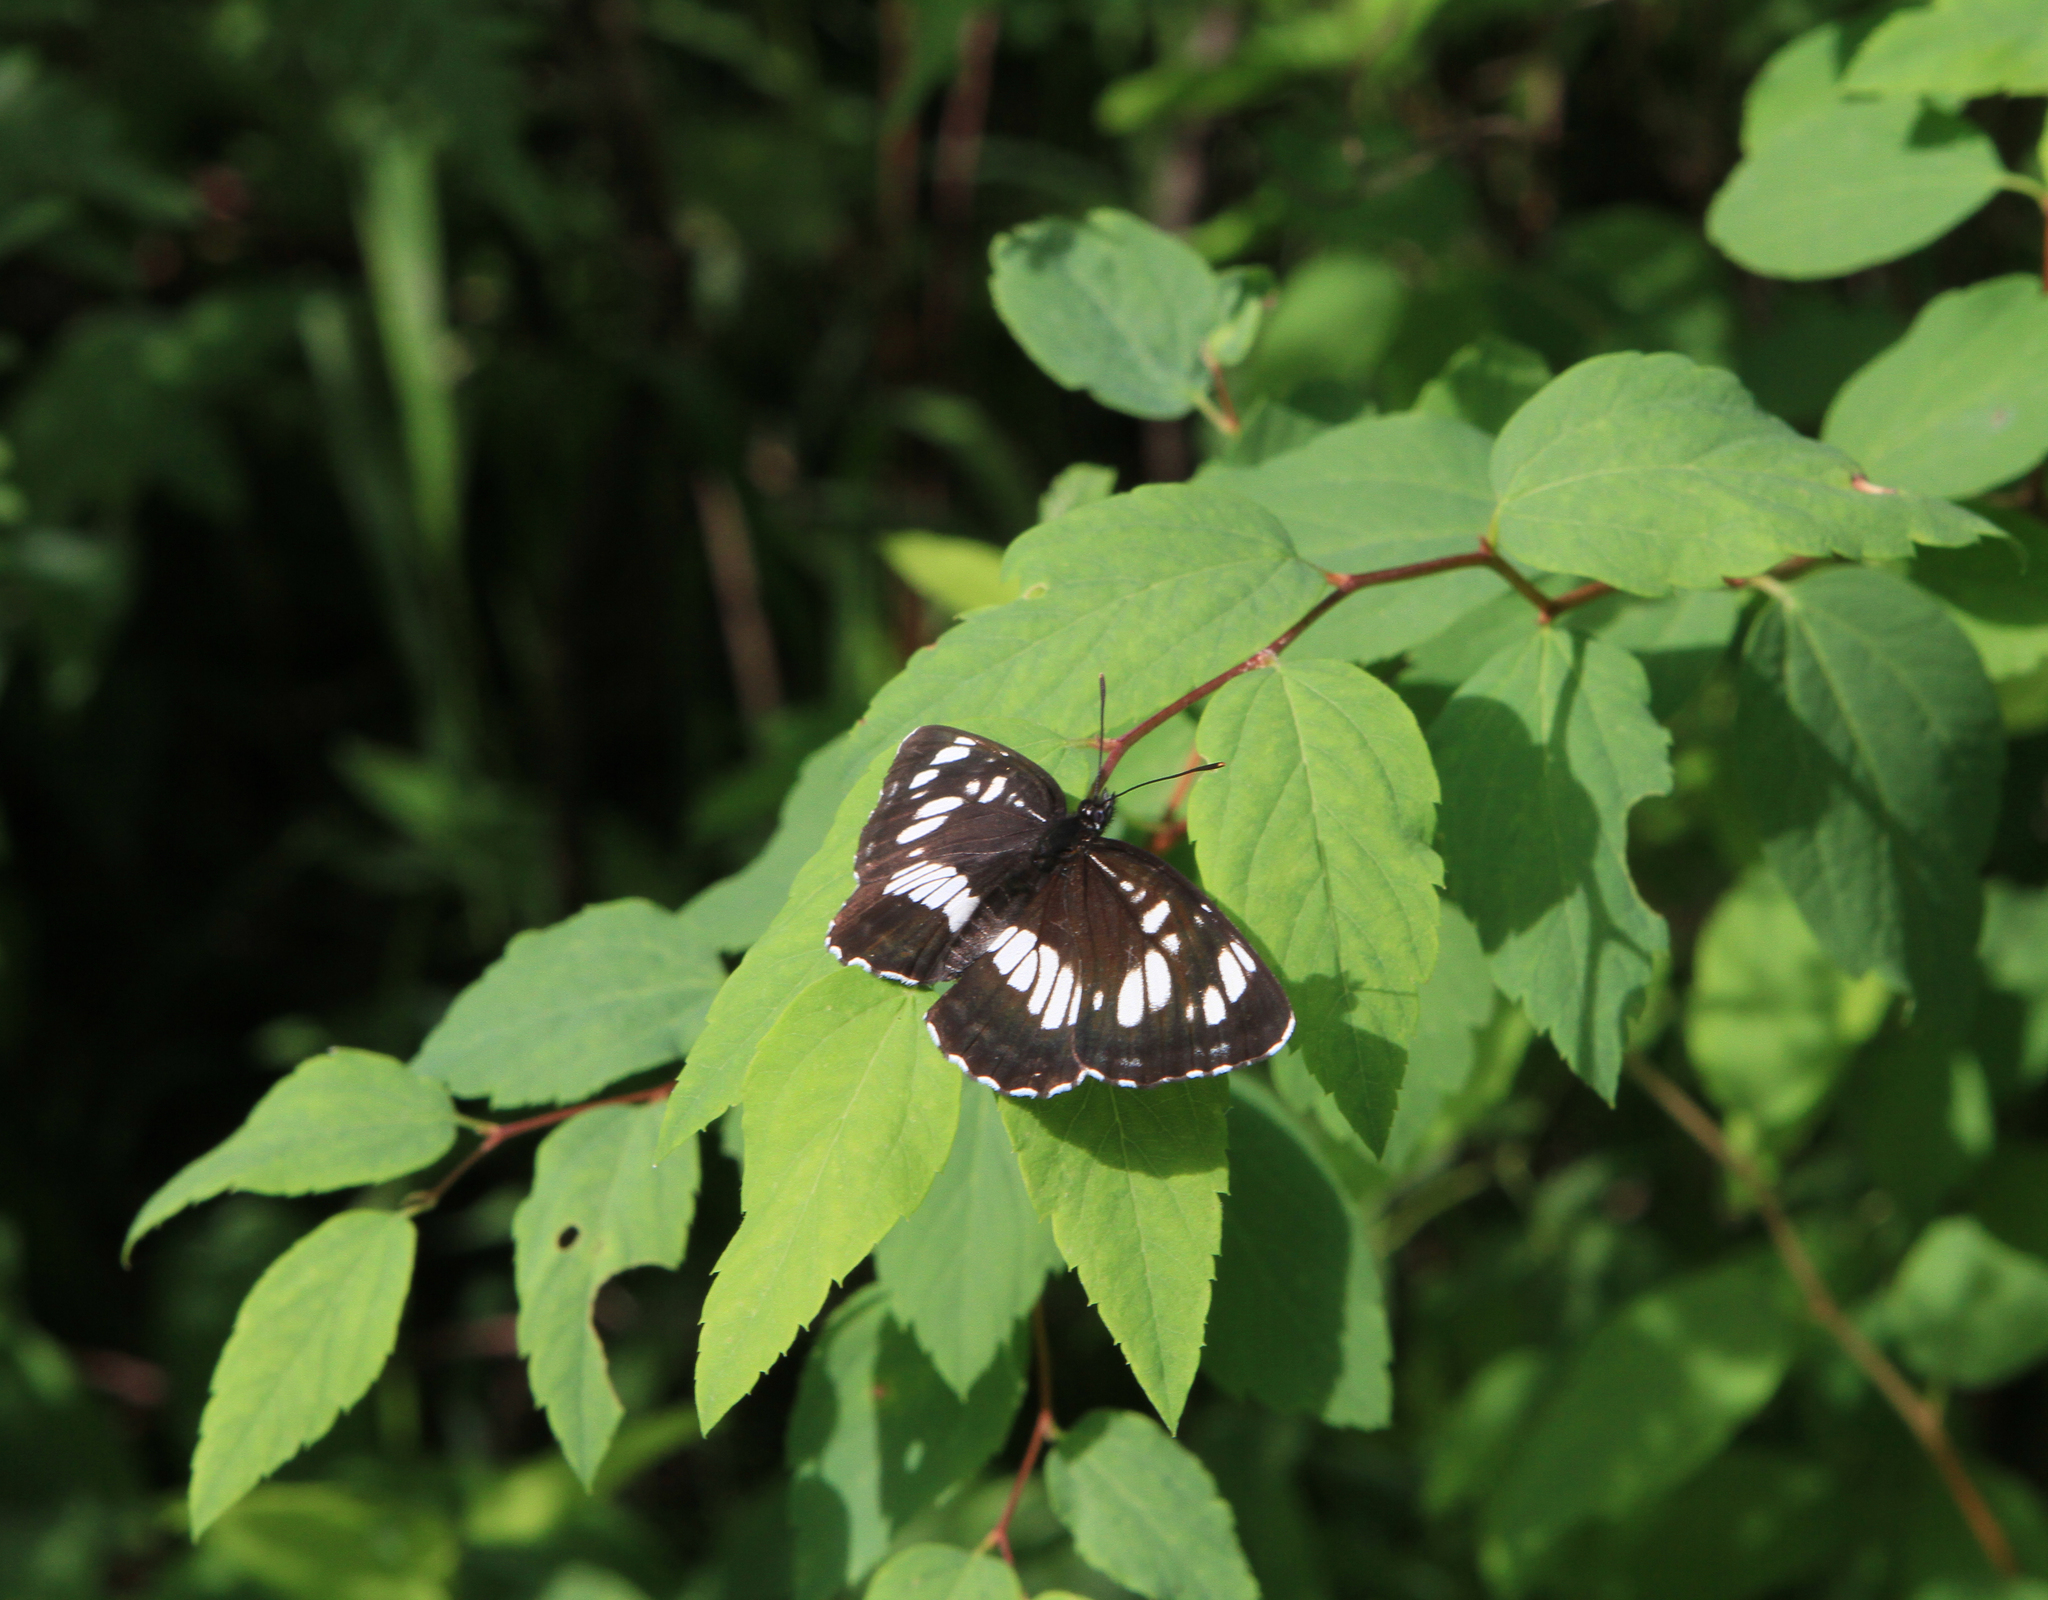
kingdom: Animalia
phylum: Arthropoda
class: Insecta
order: Lepidoptera
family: Nymphalidae
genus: Neptis
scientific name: Neptis rivularis
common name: Hungarian glider
